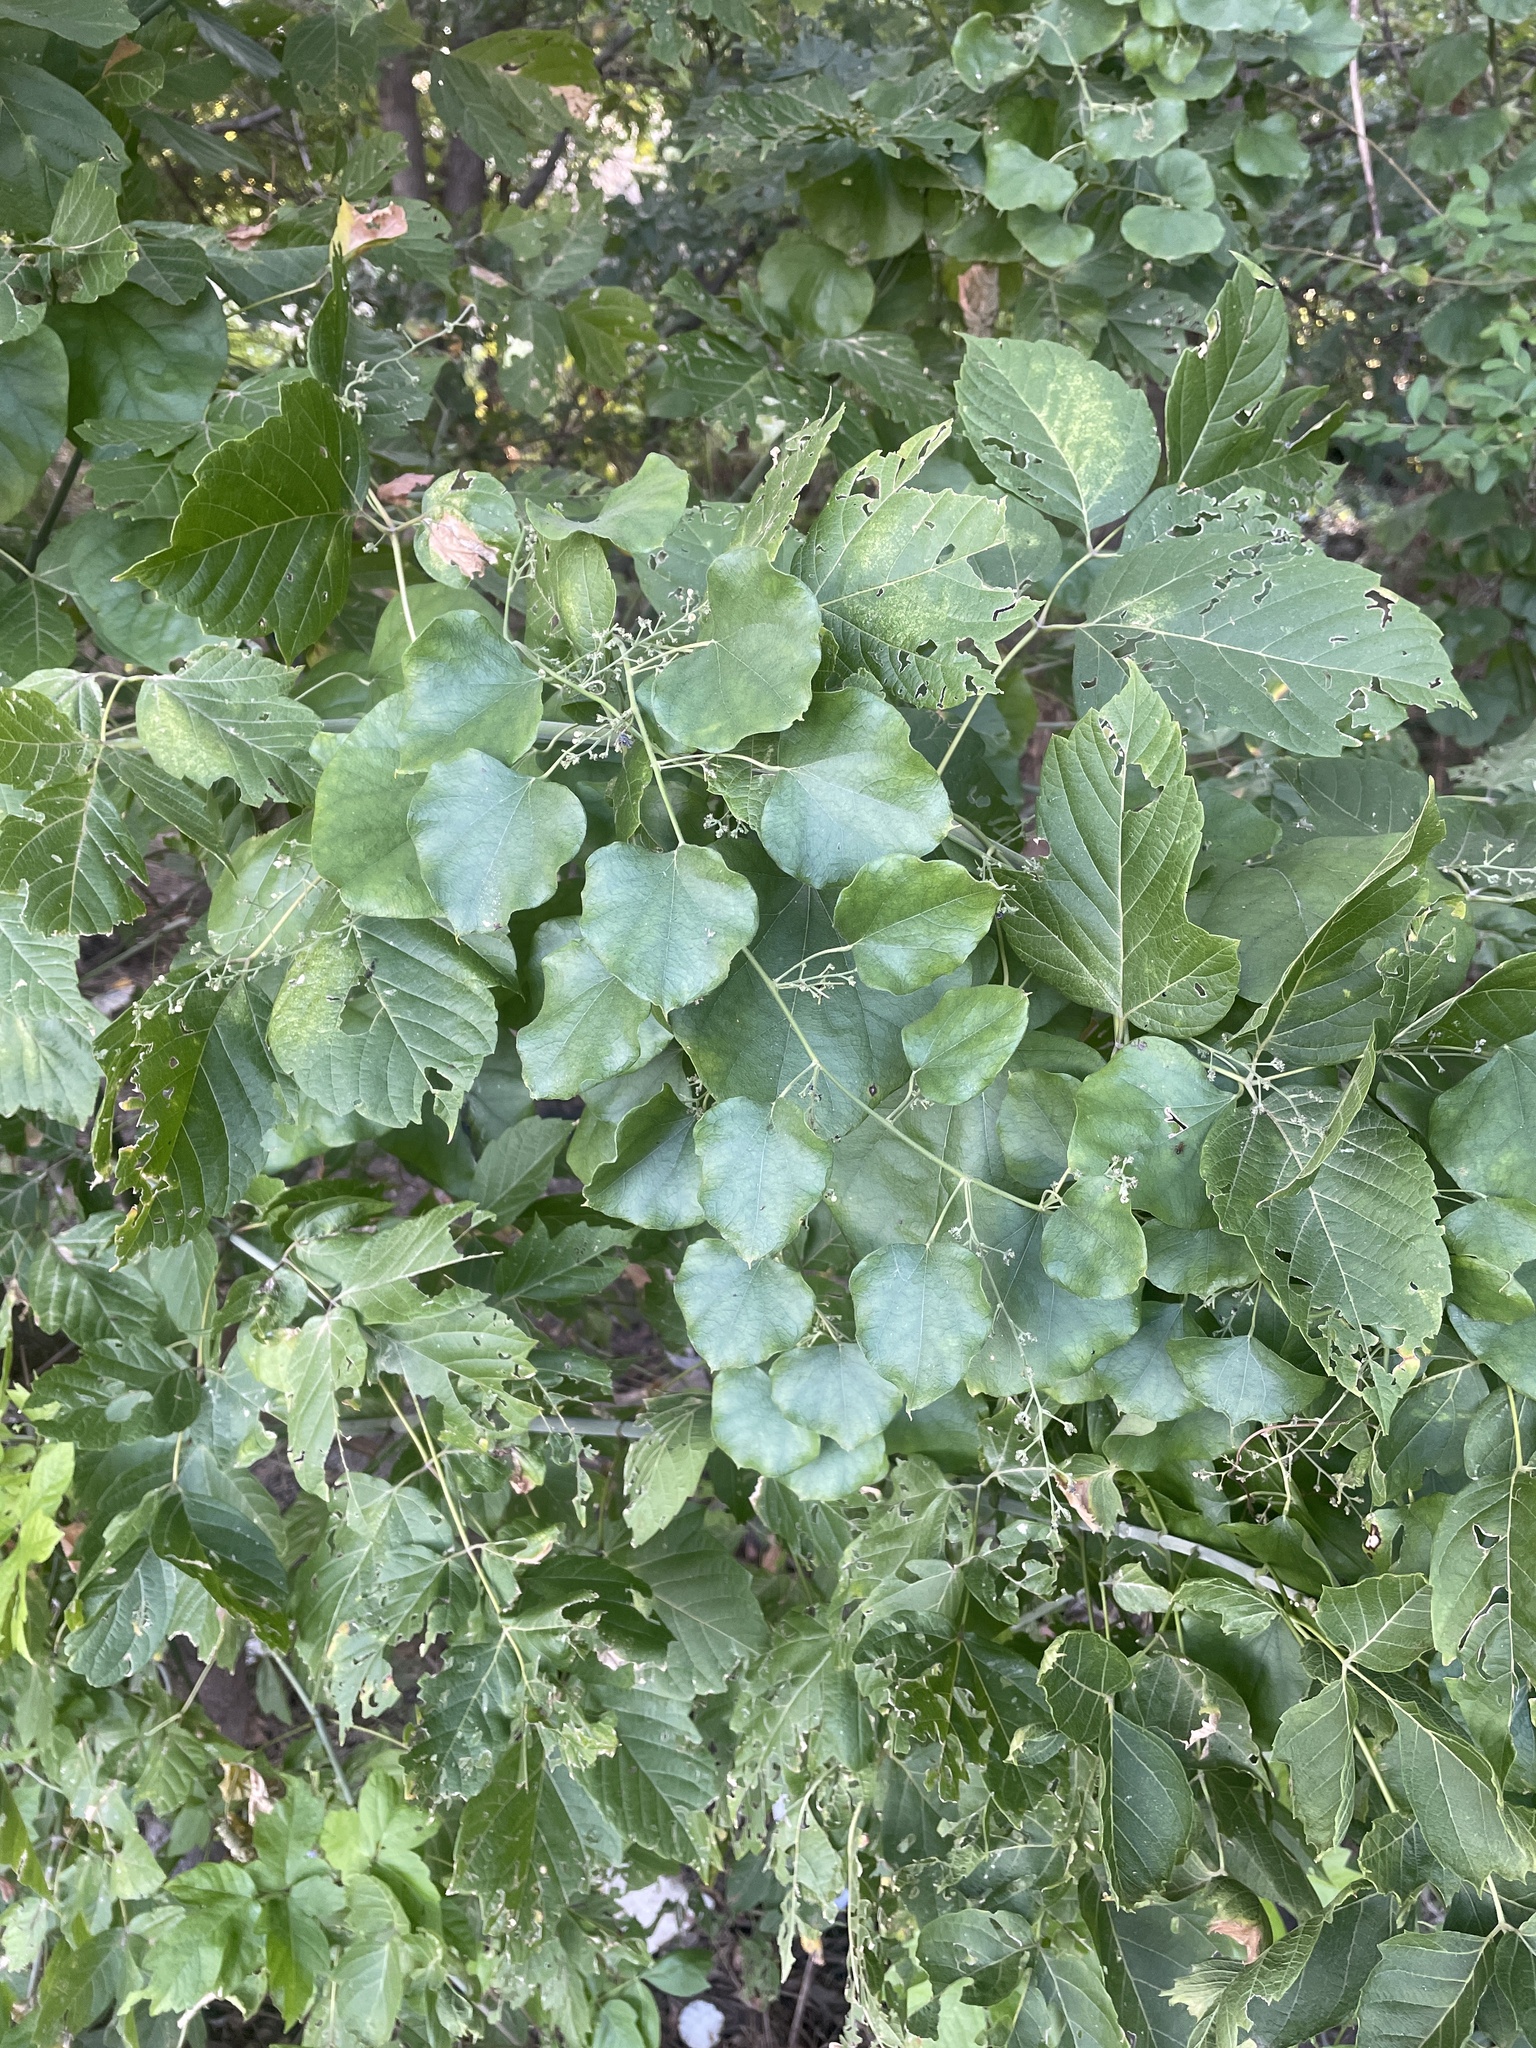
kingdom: Plantae
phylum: Tracheophyta
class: Magnoliopsida
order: Ranunculales
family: Menispermaceae
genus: Cocculus
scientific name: Cocculus carolinus
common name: Carolina moonseed
